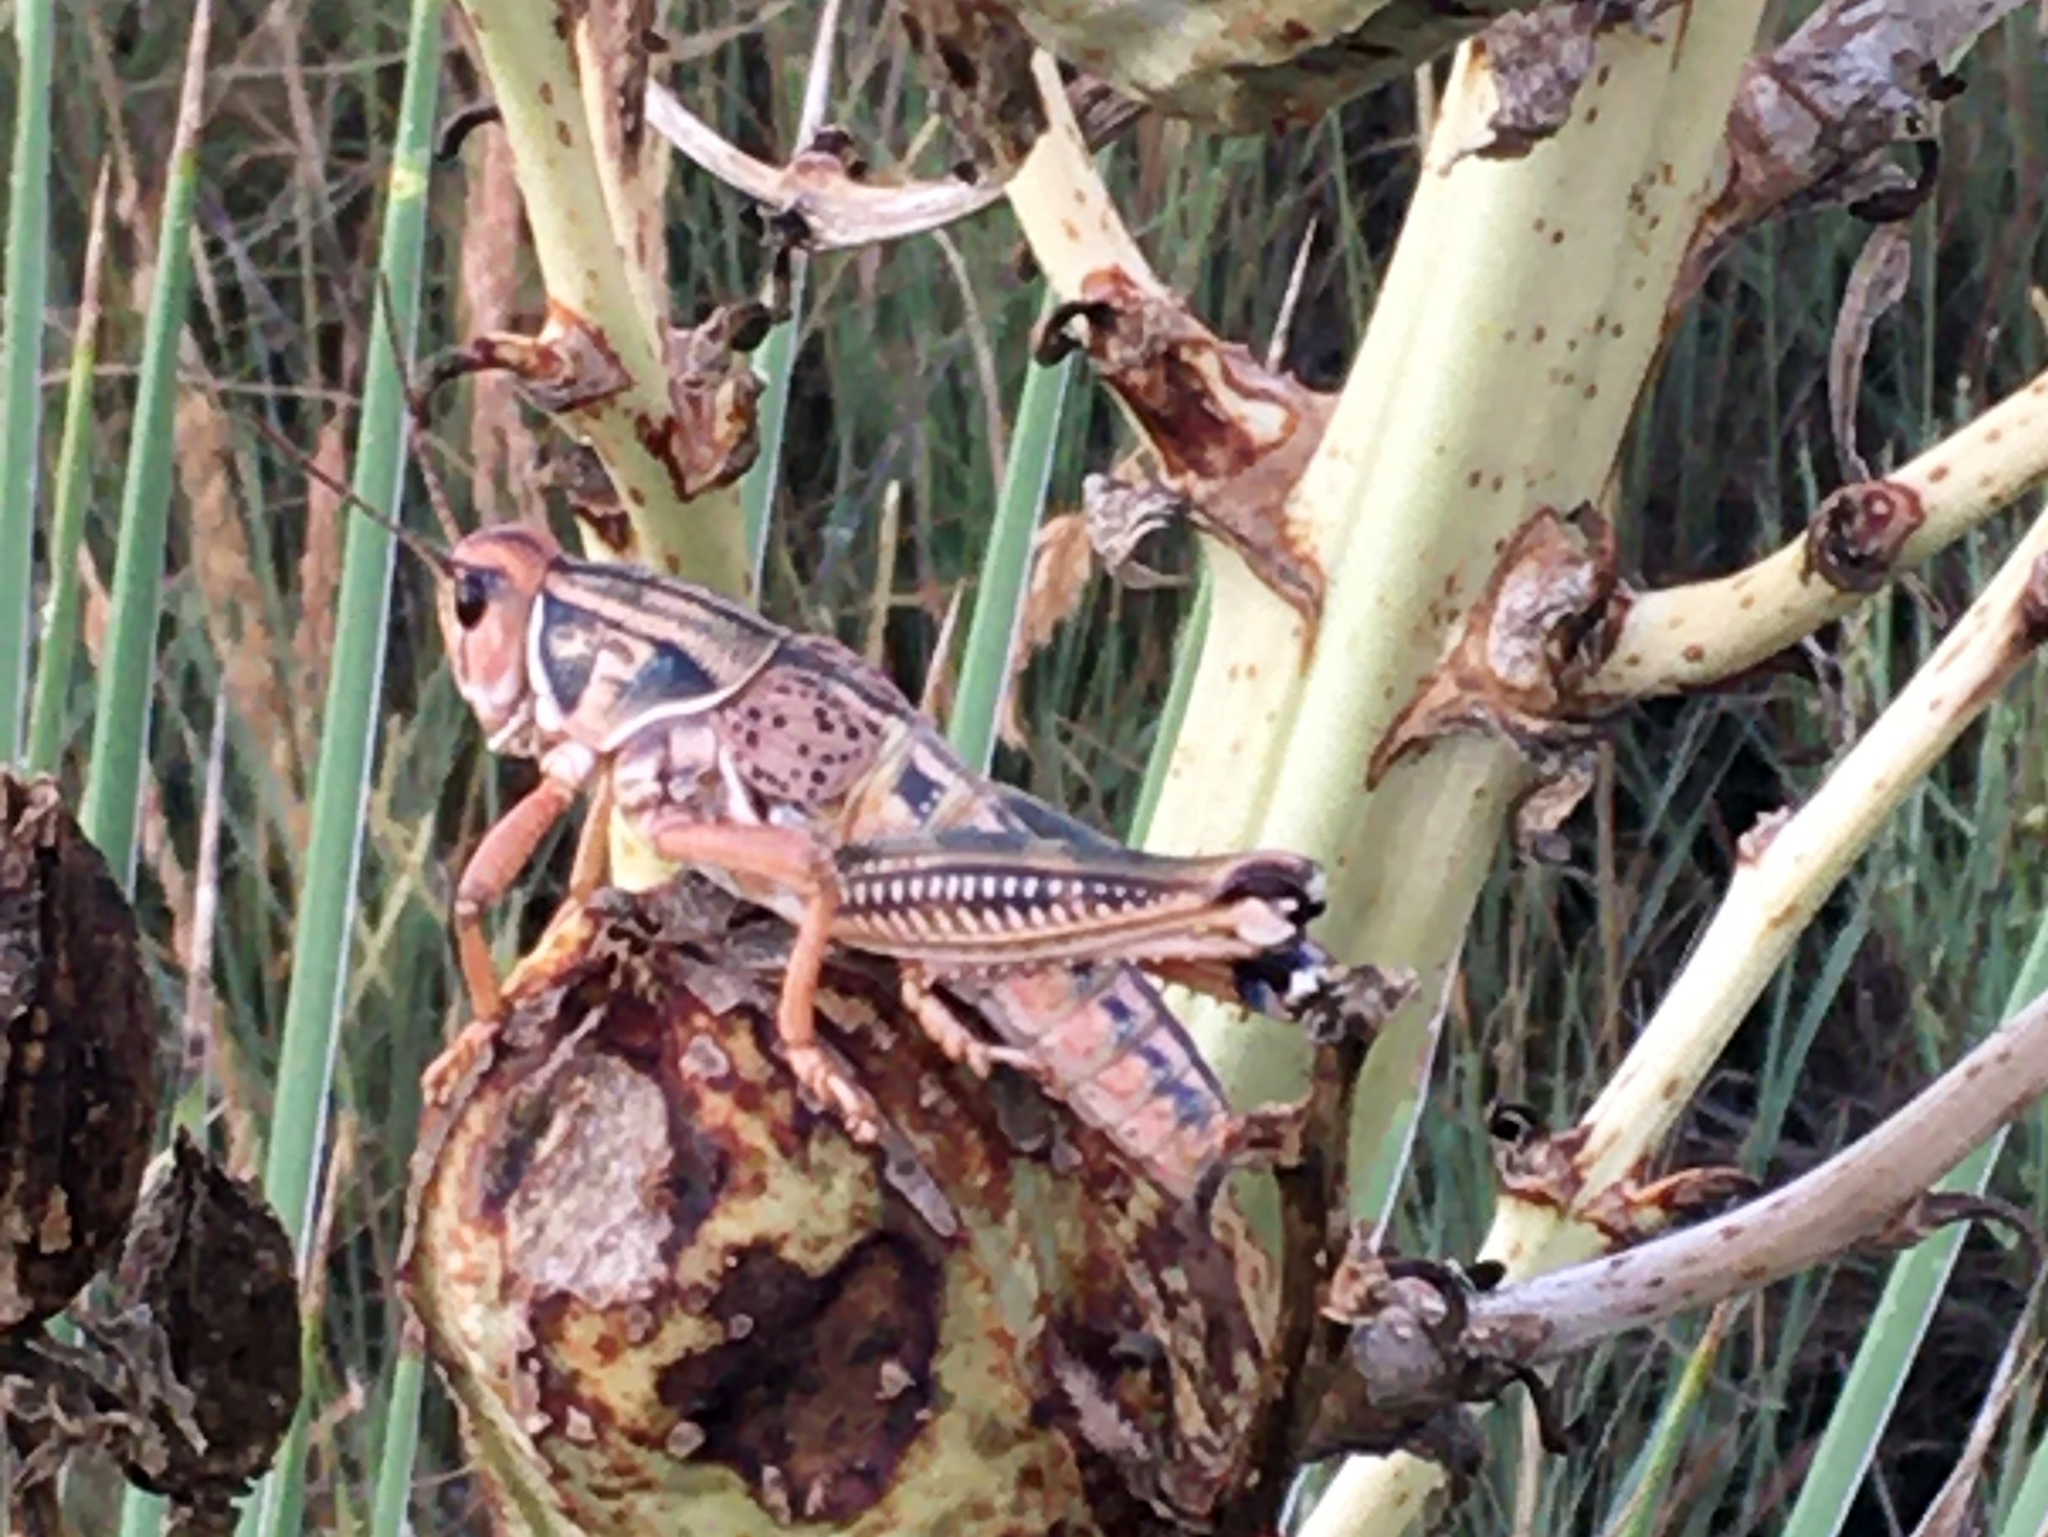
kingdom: Animalia
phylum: Arthropoda
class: Insecta
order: Orthoptera
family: Romaleidae
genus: Brachystola
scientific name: Brachystola magna
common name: Plains lubber grasshopper
